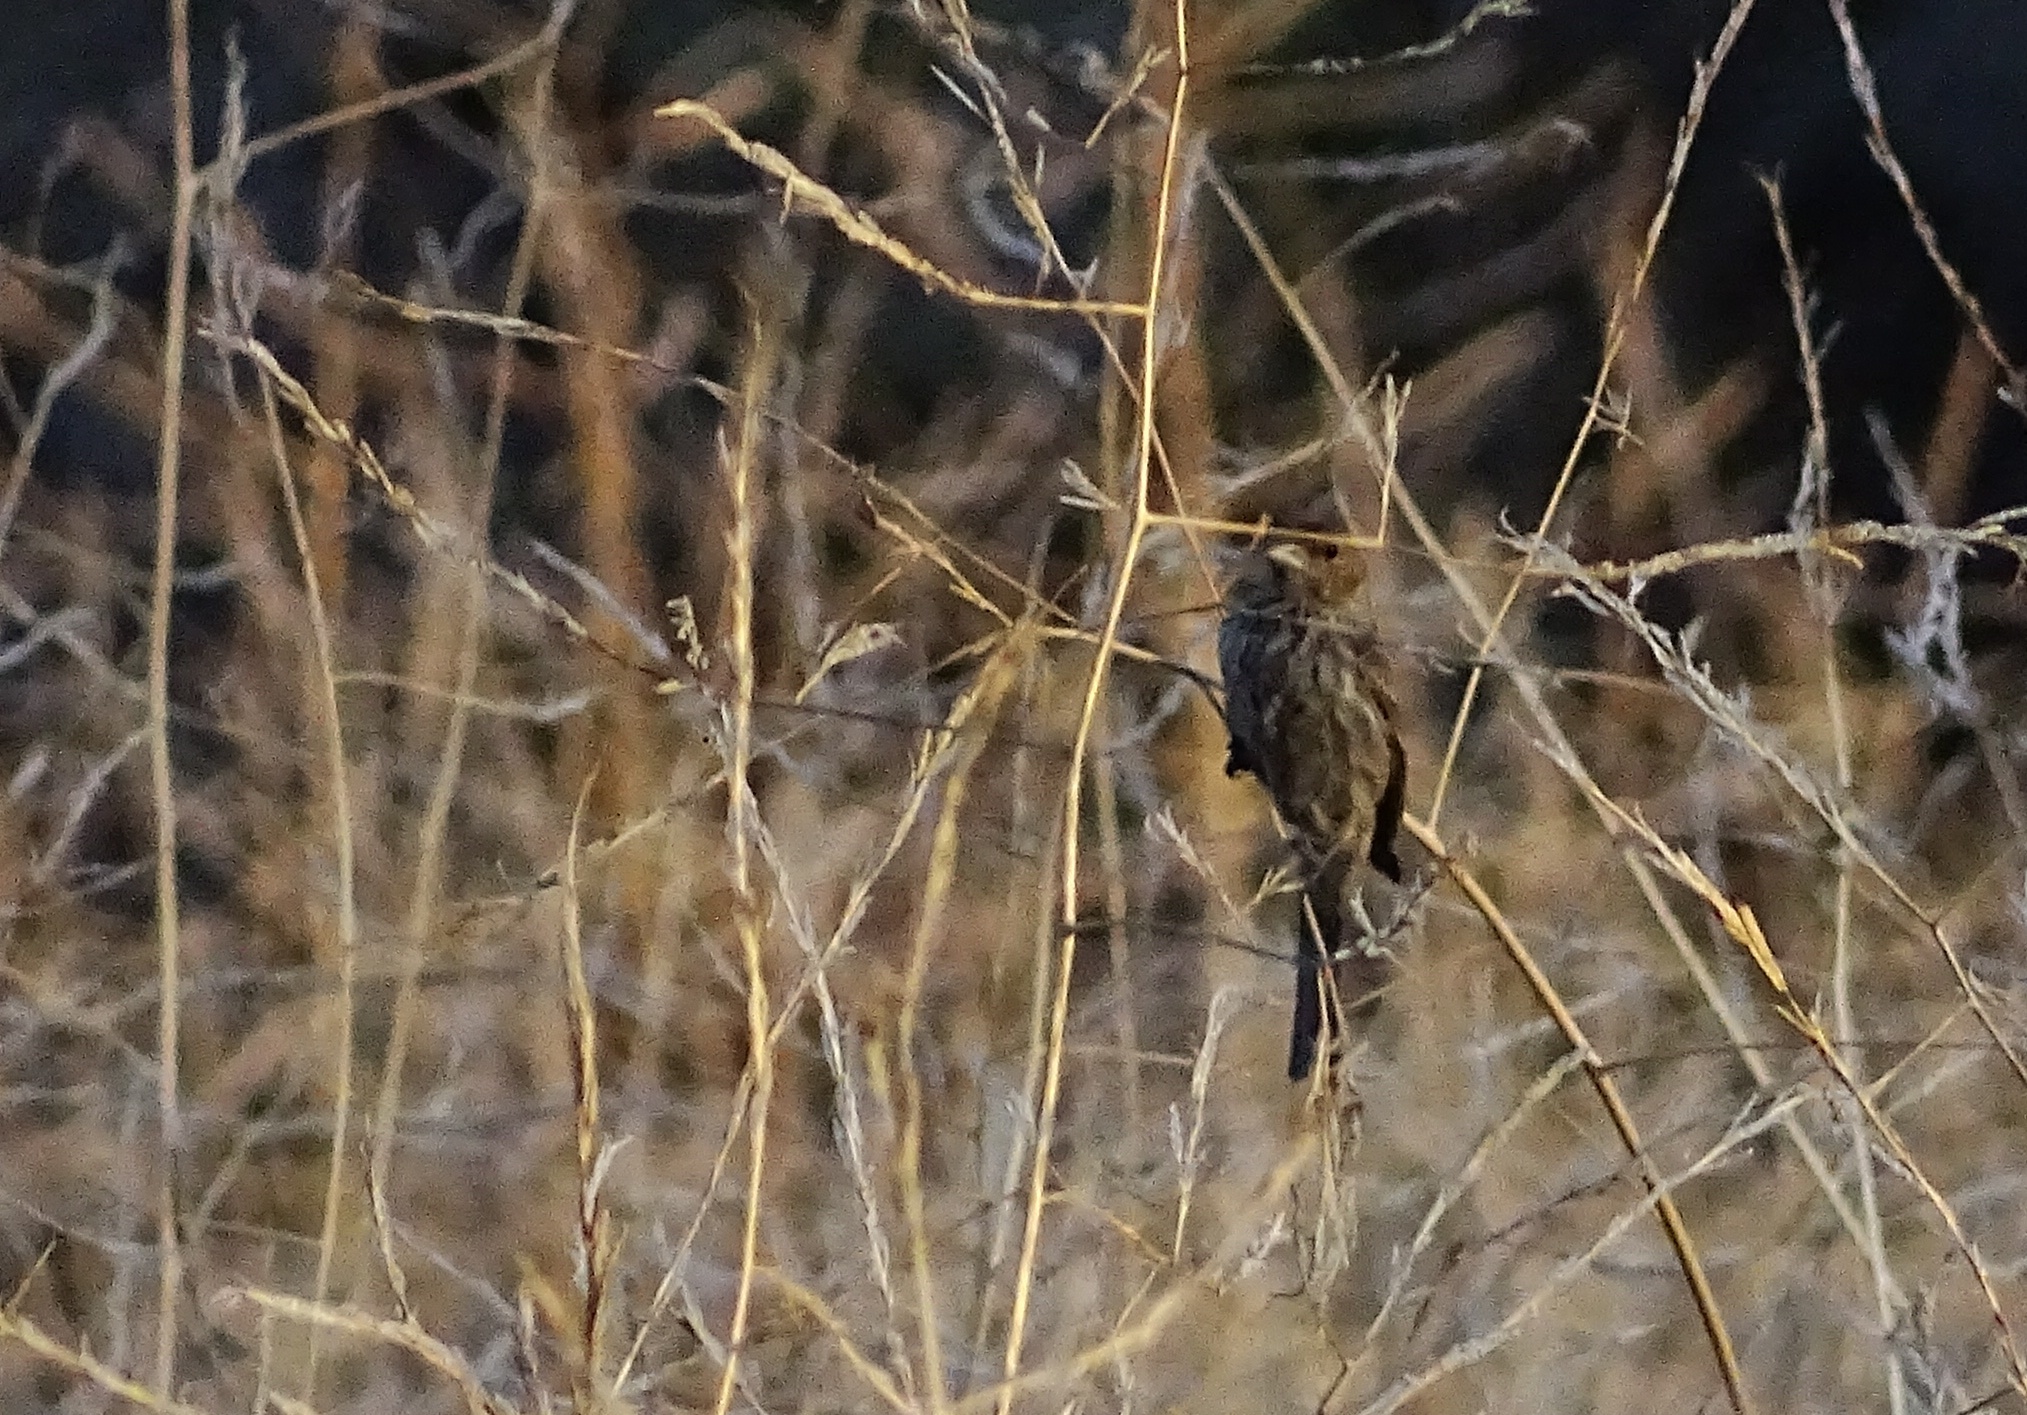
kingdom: Animalia
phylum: Chordata
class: Aves
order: Passeriformes
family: Fringillidae
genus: Haemorhous
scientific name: Haemorhous mexicanus
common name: House finch
